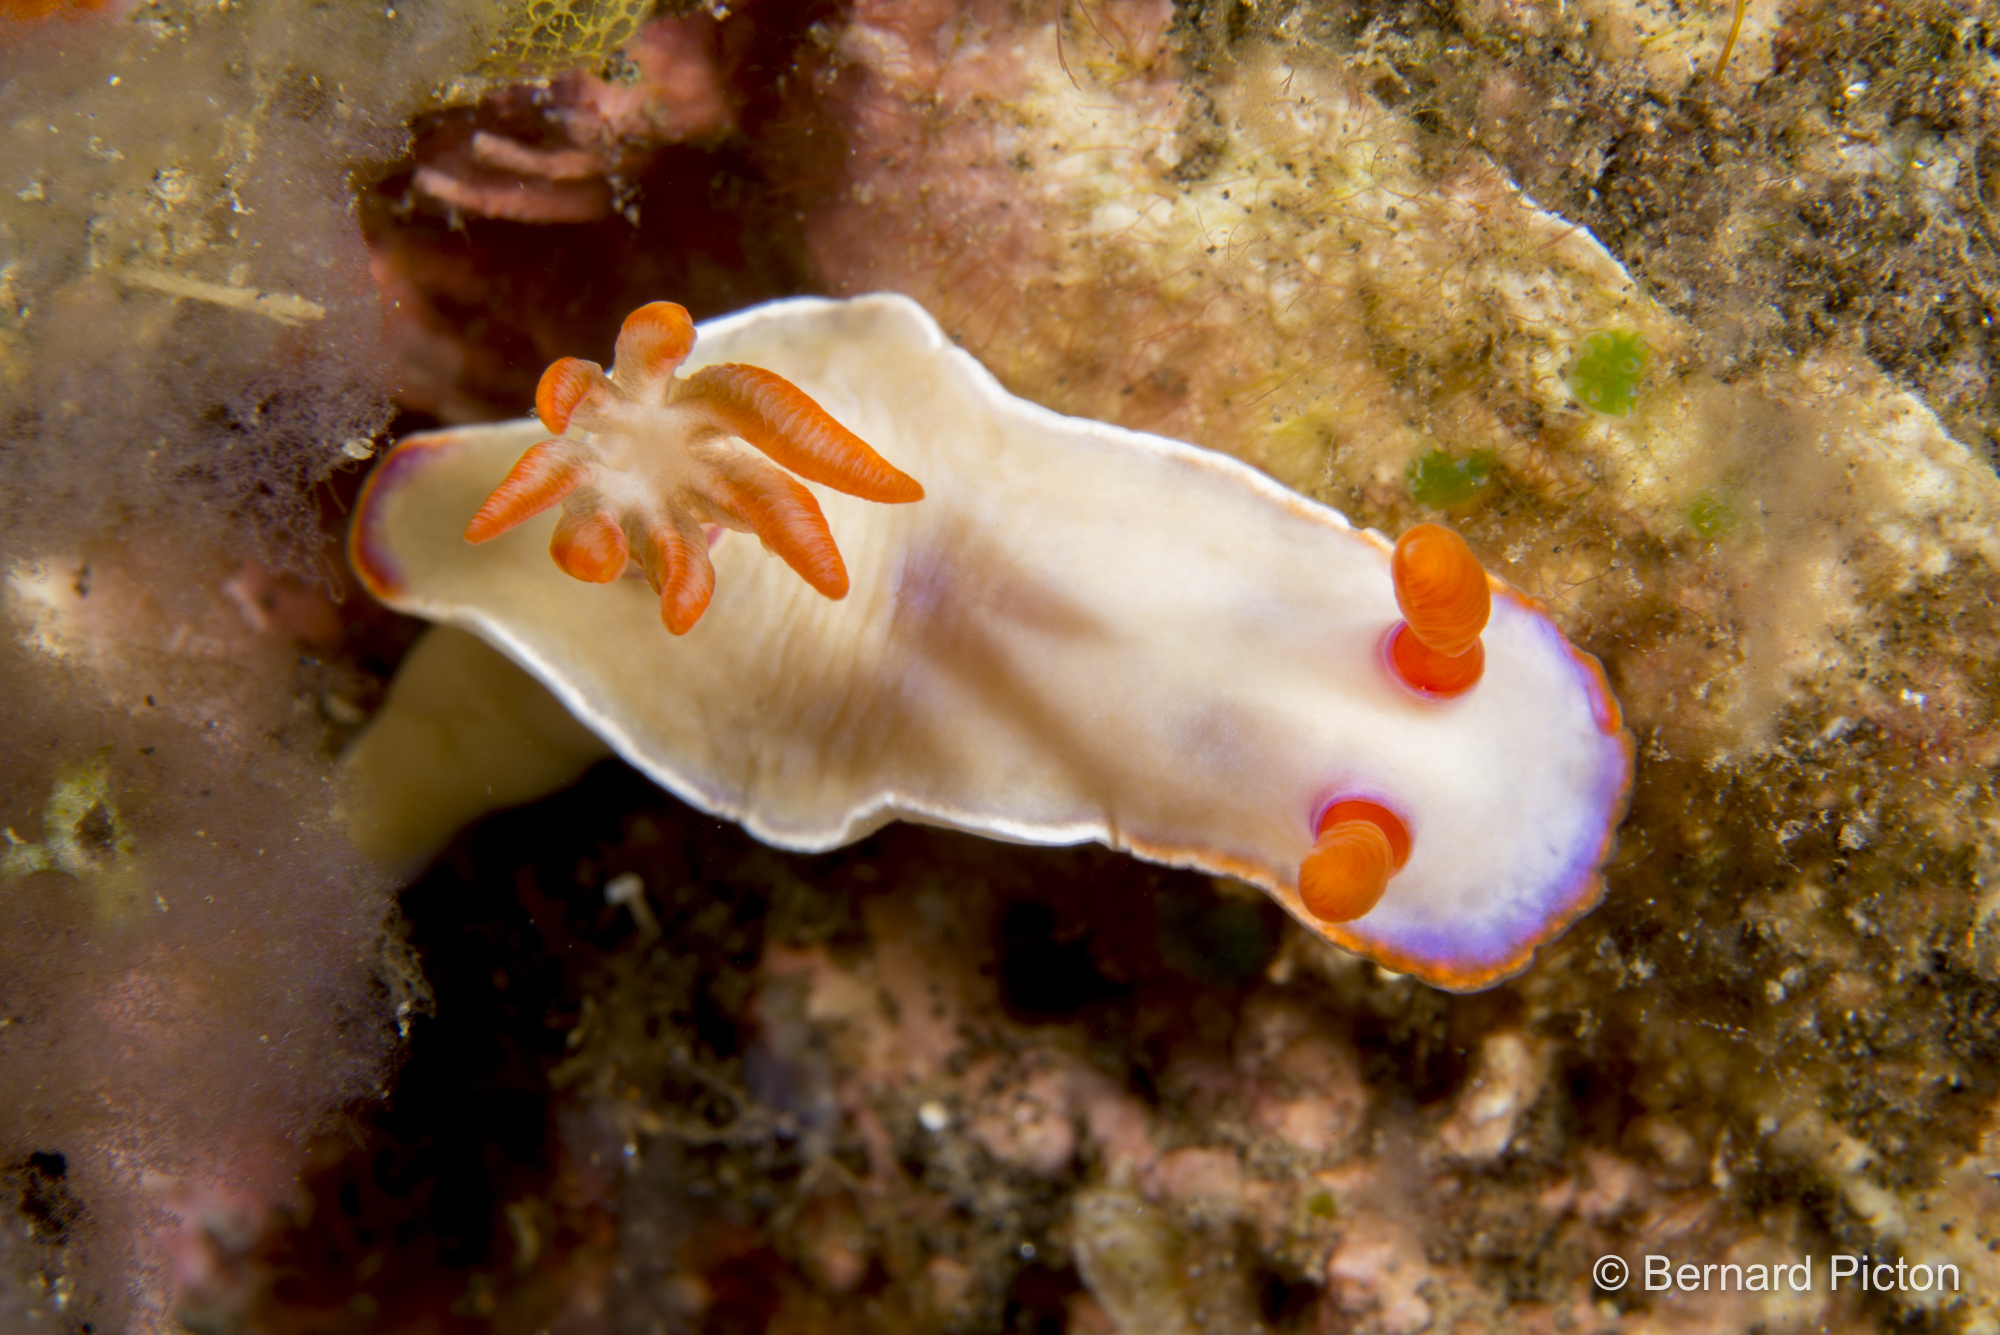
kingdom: Animalia
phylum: Mollusca
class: Gastropoda
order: Nudibranchia
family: Chromodorididae
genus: Hypselodoris
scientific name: Hypselodoris iba
